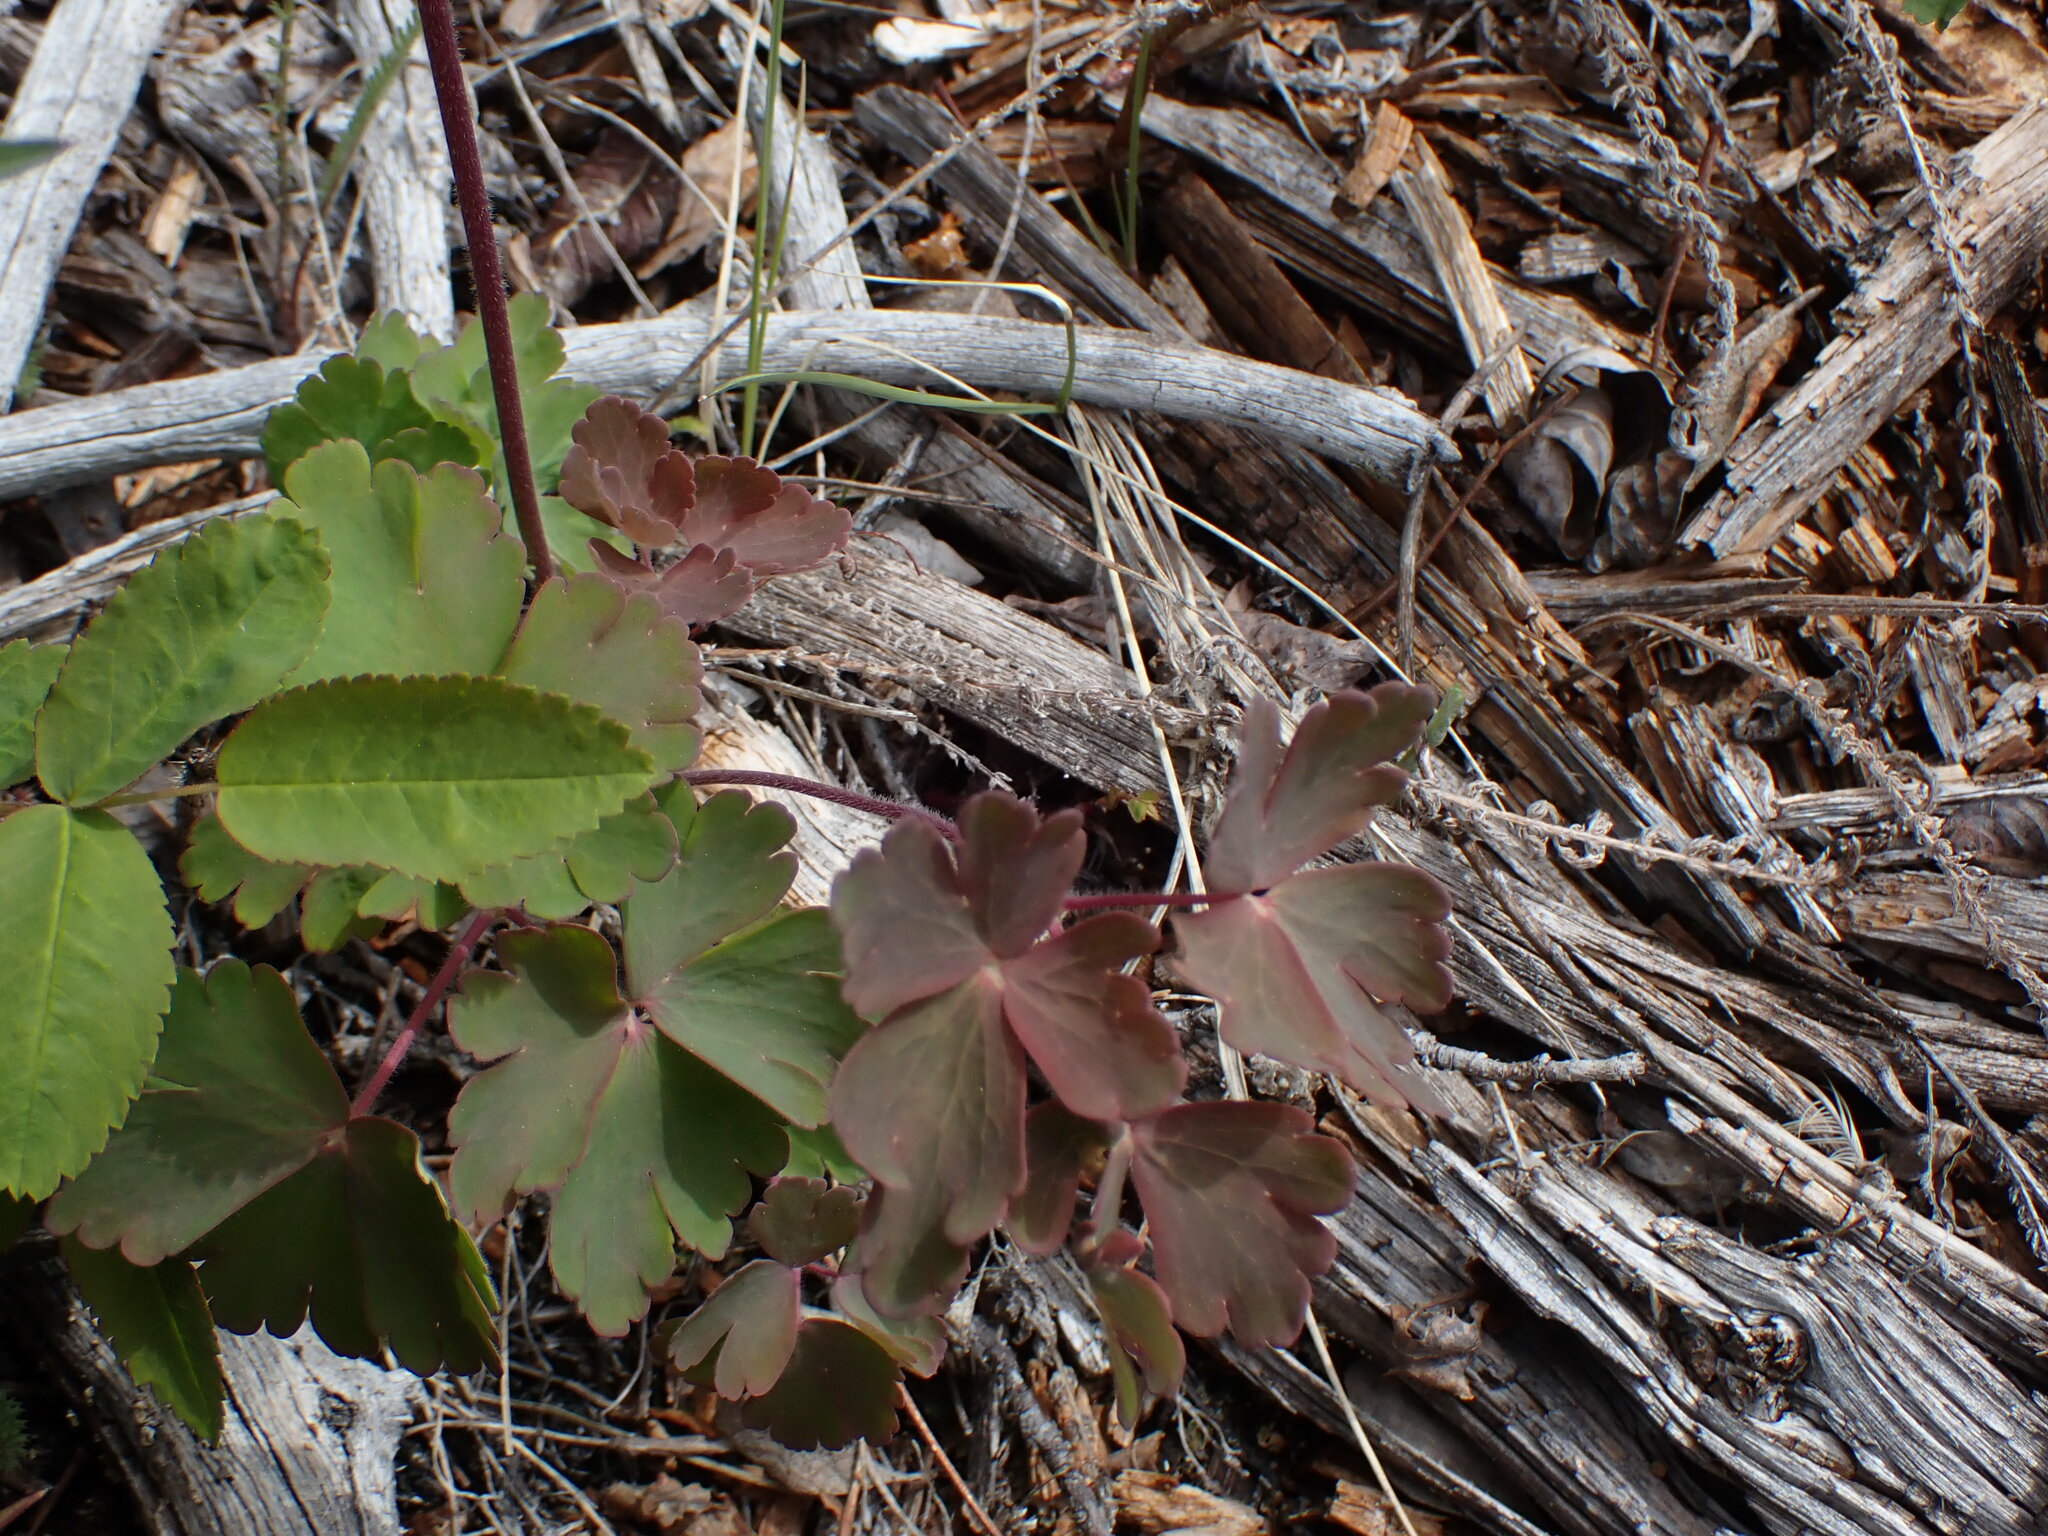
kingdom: Plantae
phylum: Tracheophyta
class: Magnoliopsida
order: Ranunculales
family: Ranunculaceae
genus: Aquilegia
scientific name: Aquilegia brevistyla
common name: Yukon columbine
